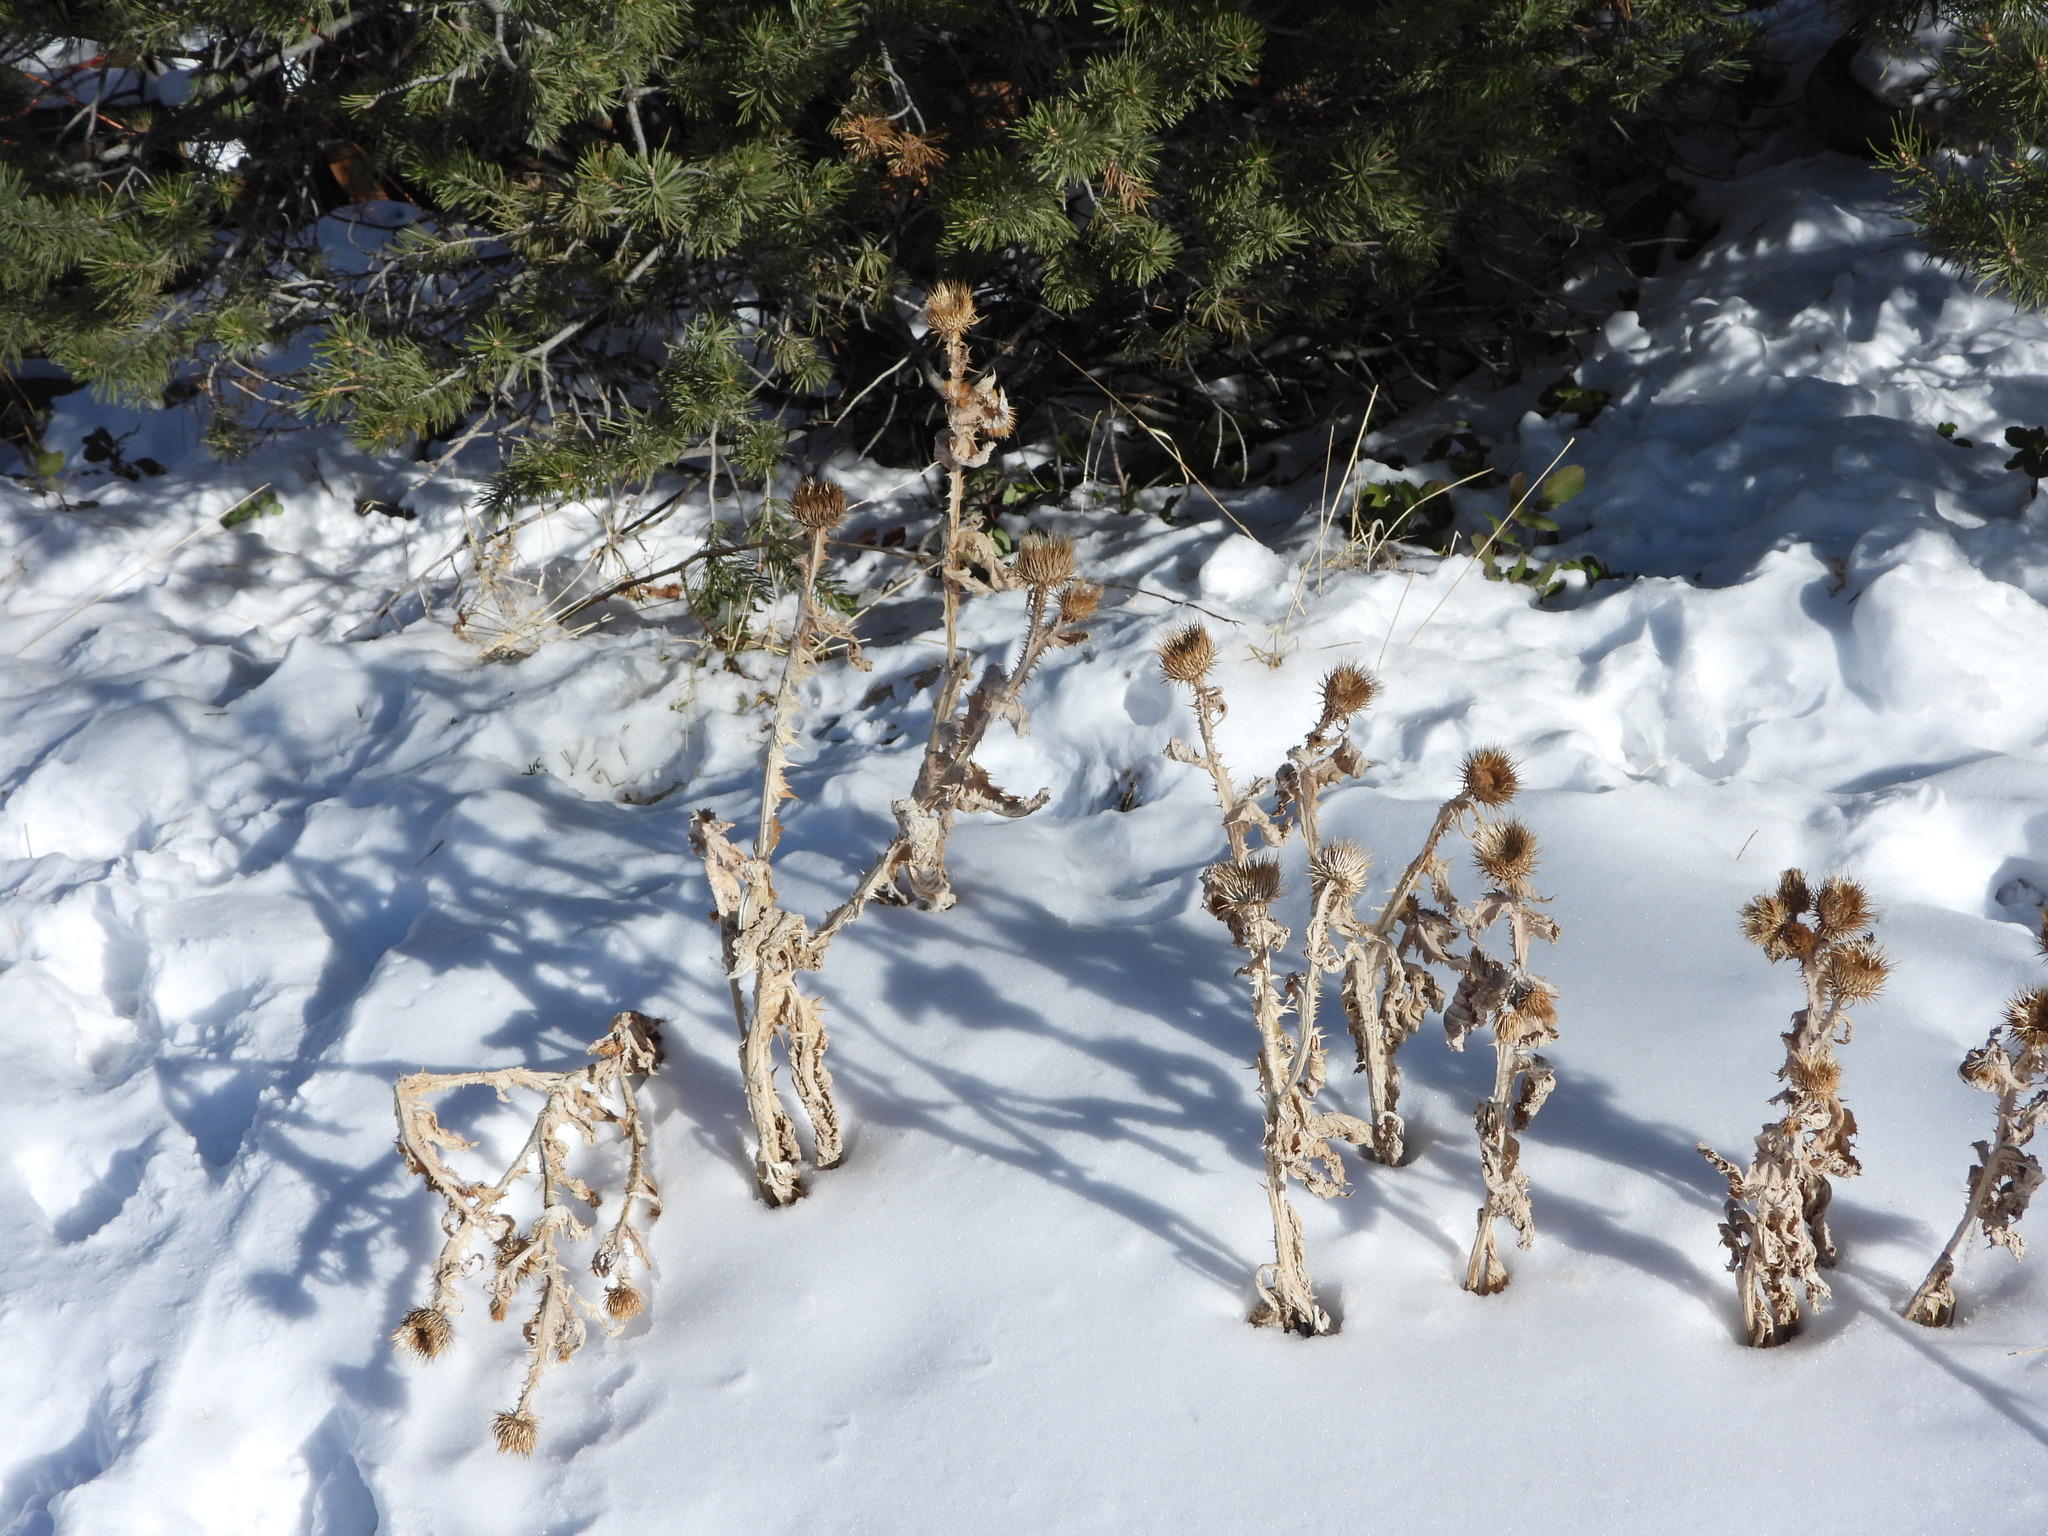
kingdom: Plantae
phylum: Tracheophyta
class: Magnoliopsida
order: Asterales
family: Asteraceae
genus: Onopordum
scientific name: Onopordum acanthium
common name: Scotch thistle
